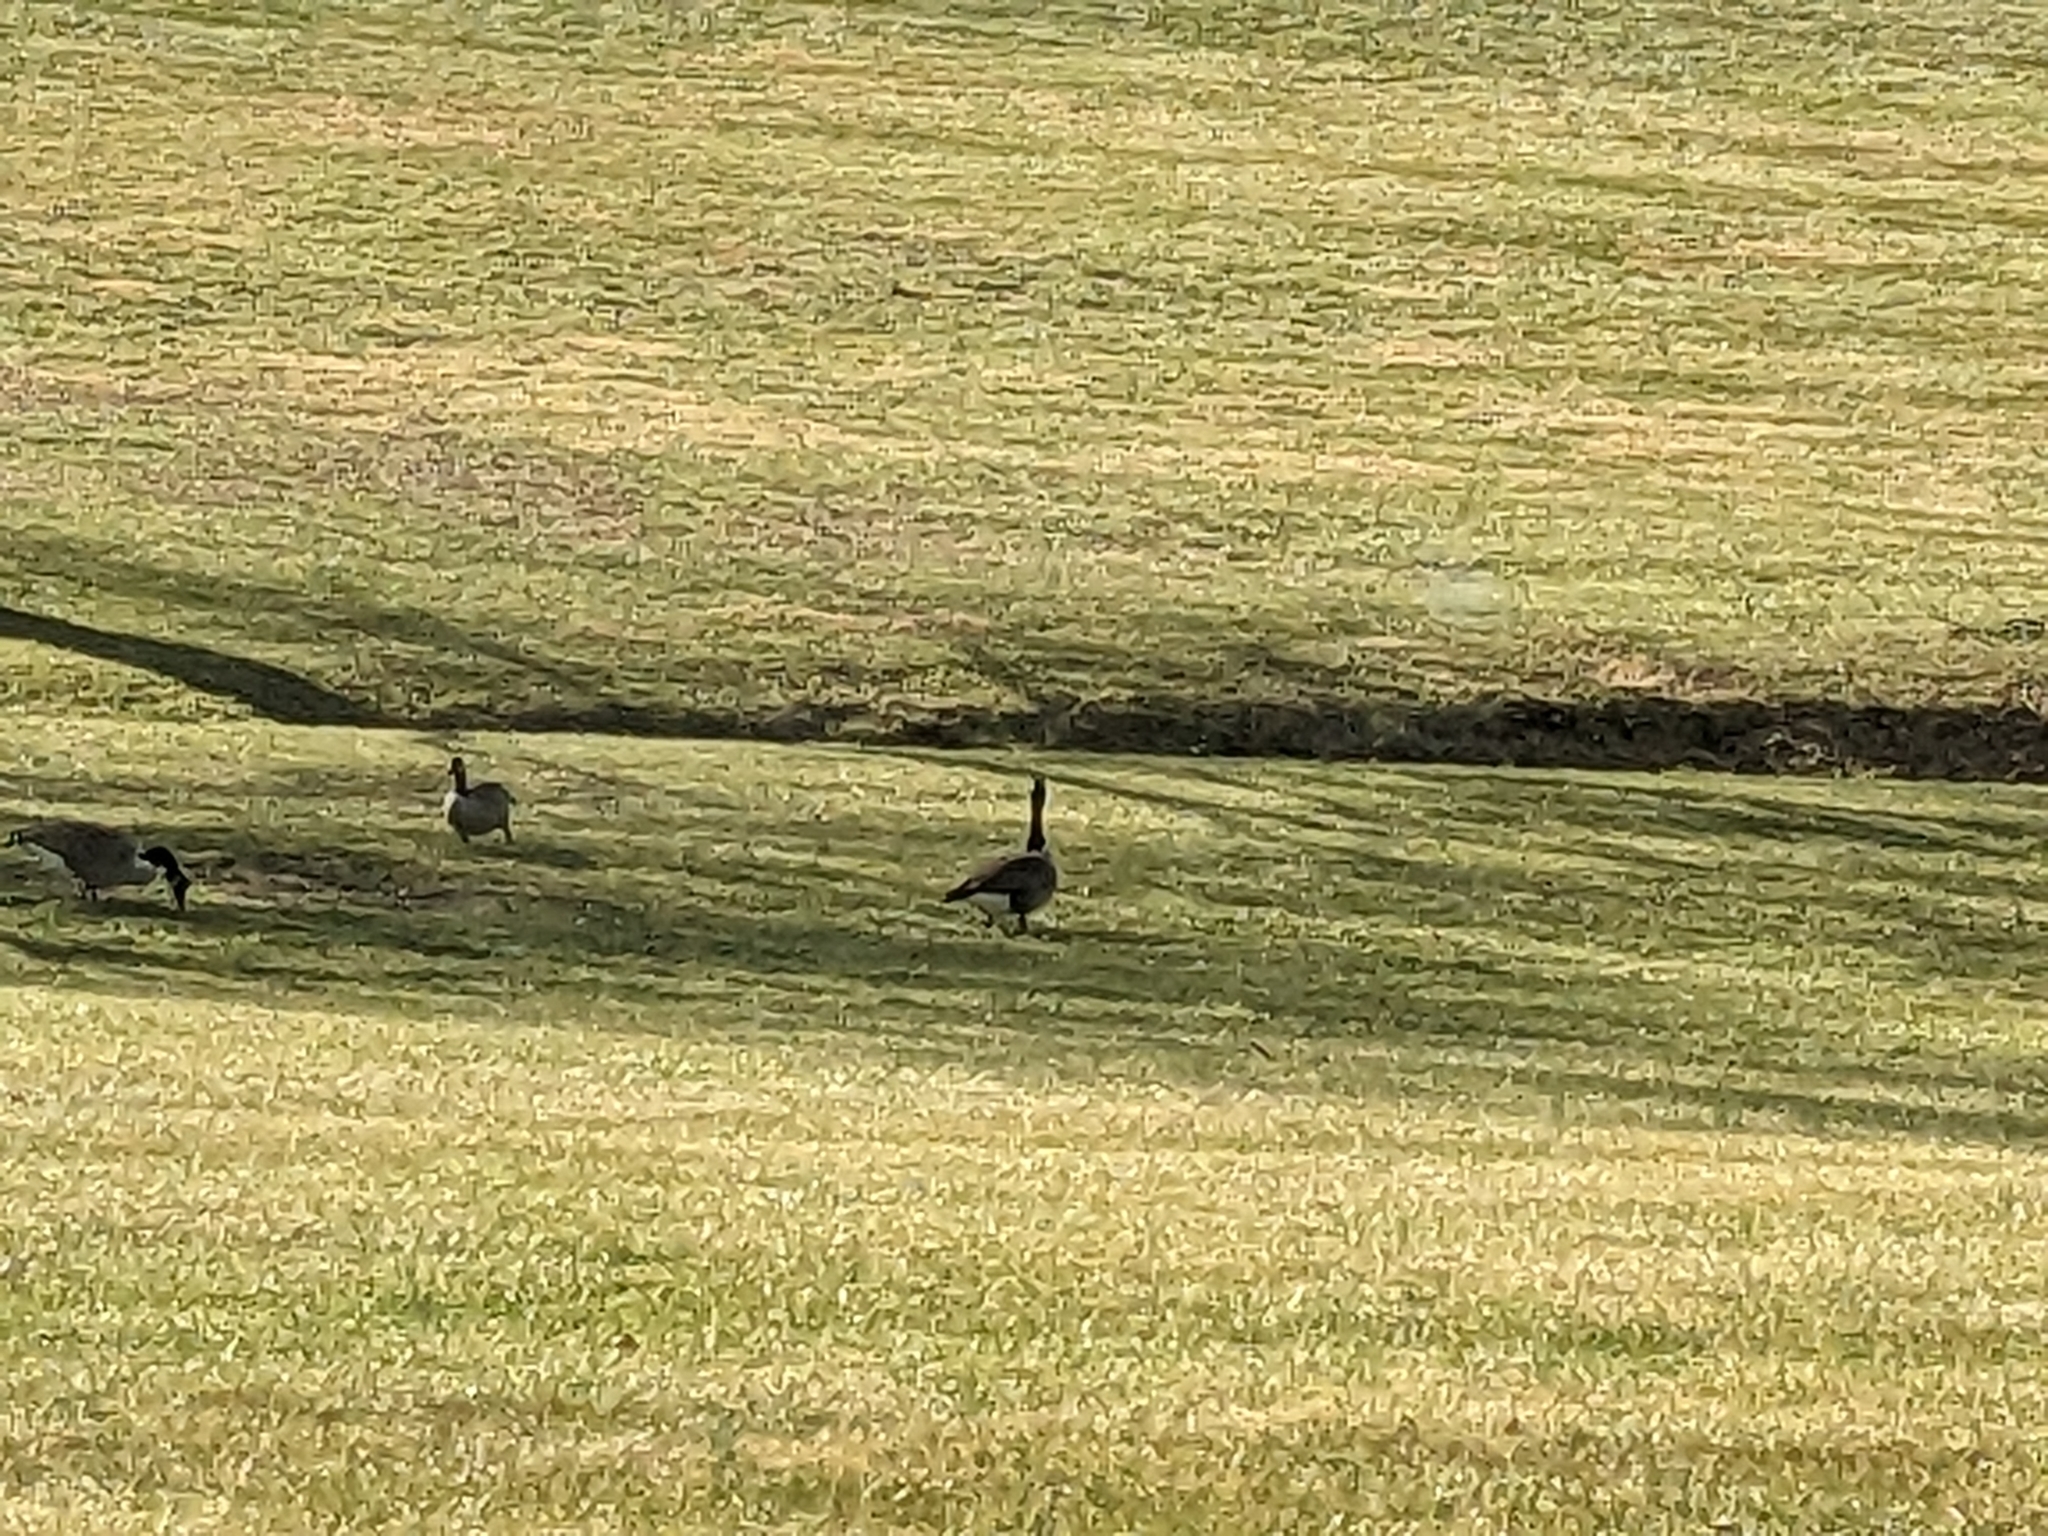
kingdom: Animalia
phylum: Chordata
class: Aves
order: Anseriformes
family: Anatidae
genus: Branta
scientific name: Branta canadensis
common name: Canada goose
